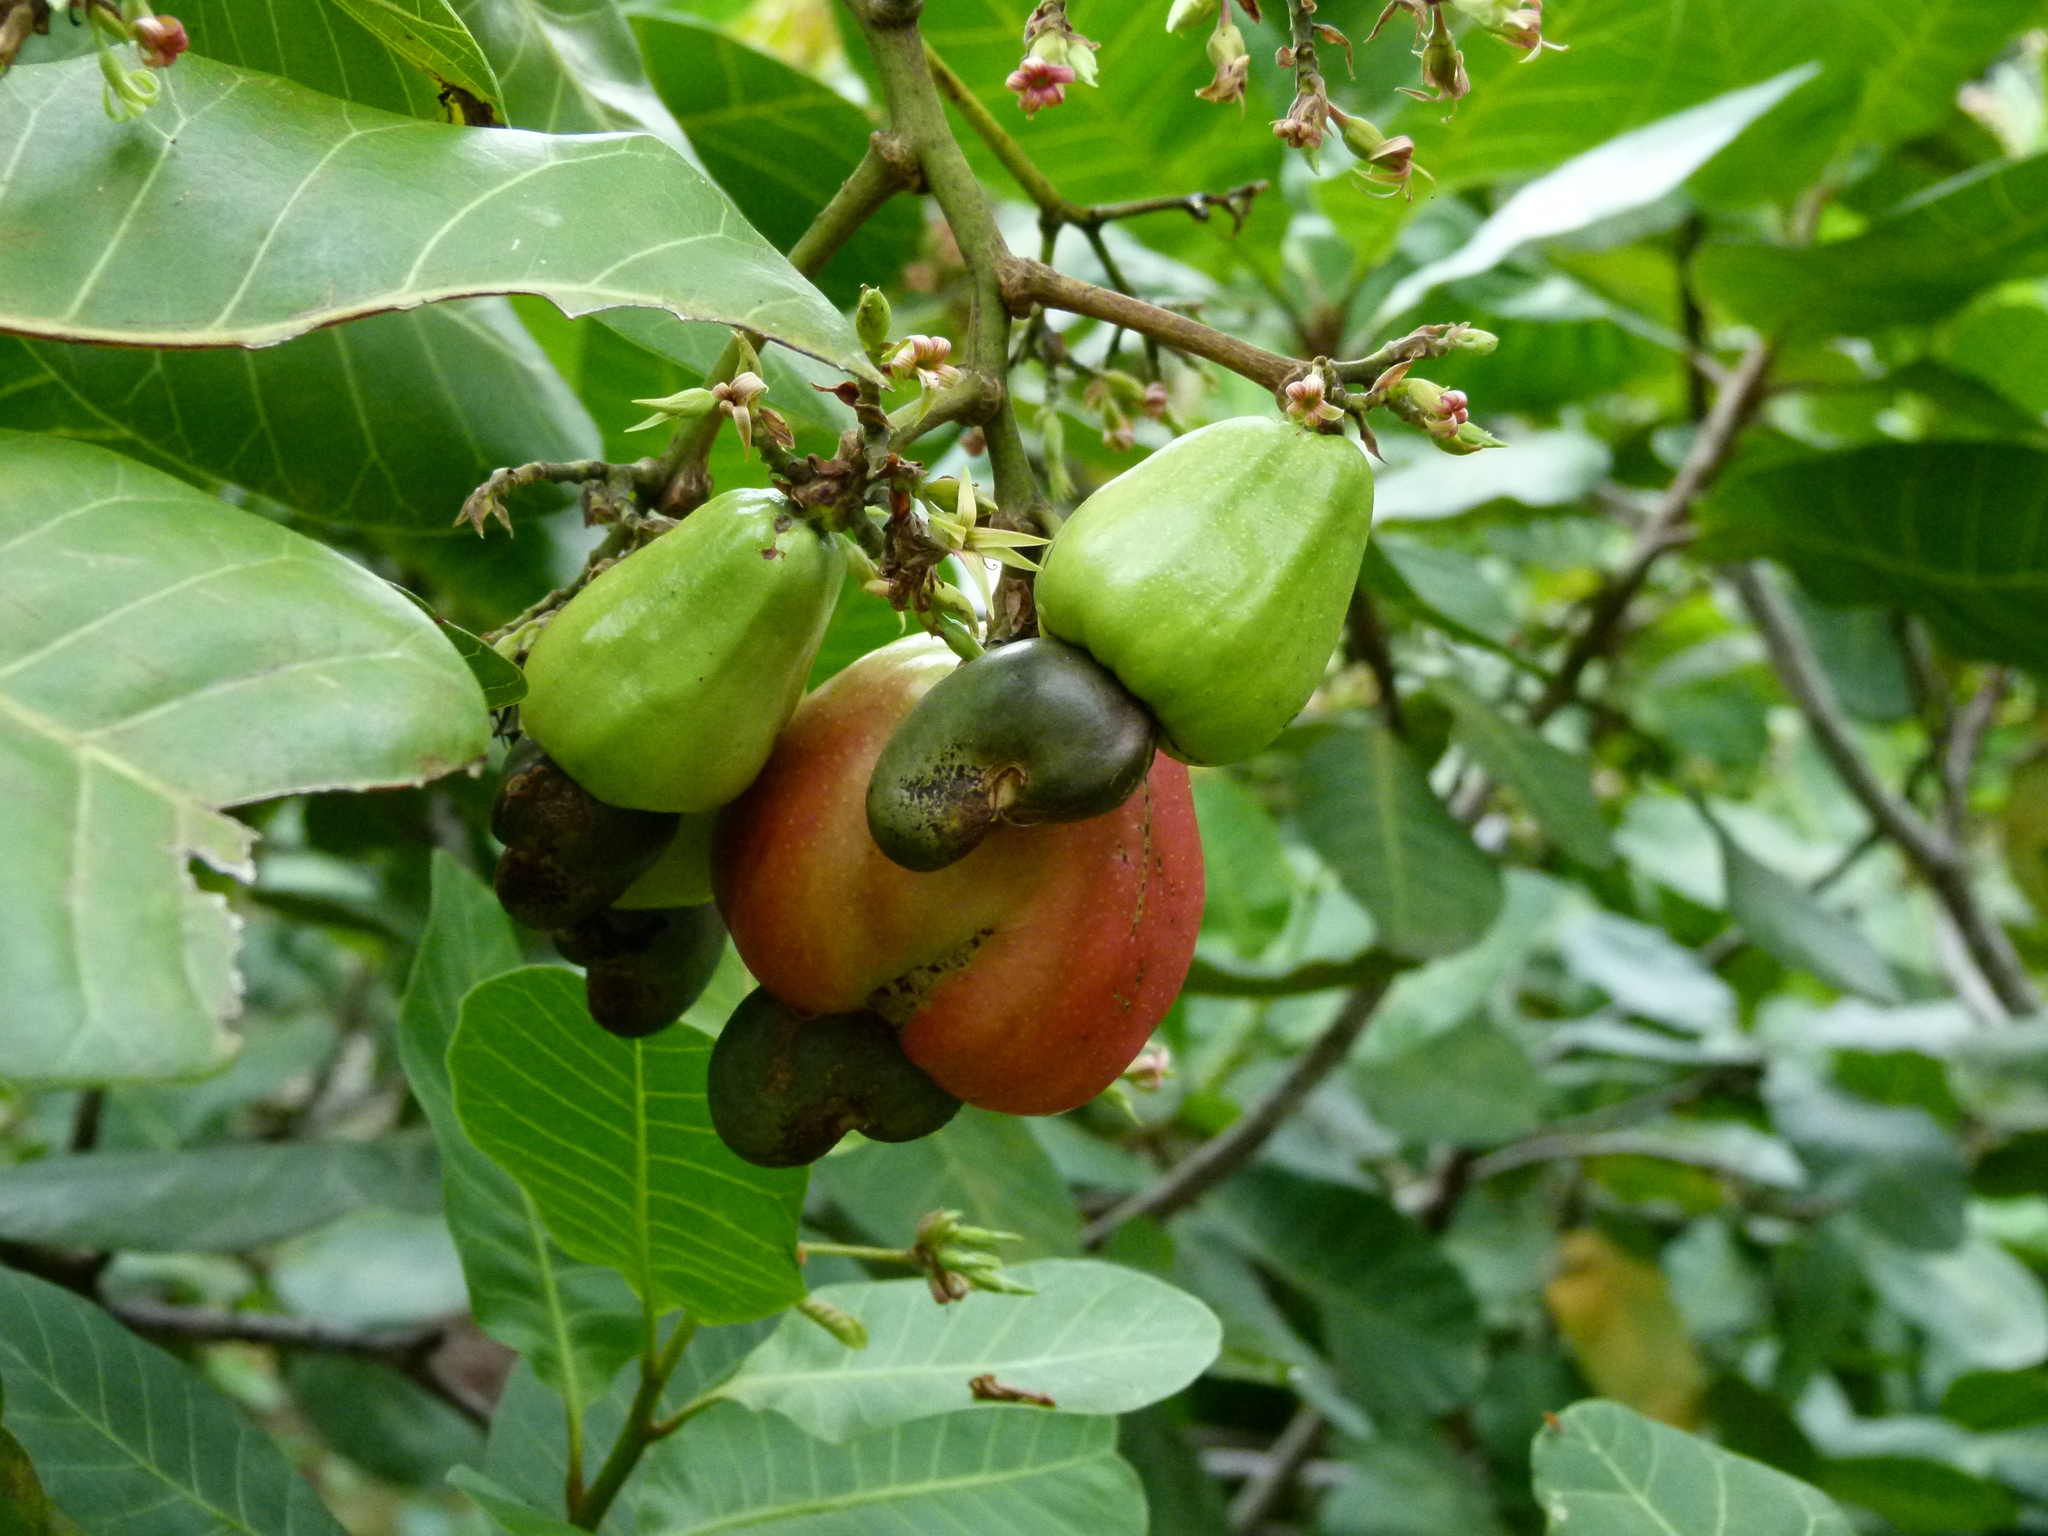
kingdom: Plantae
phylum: Tracheophyta
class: Magnoliopsida
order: Sapindales
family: Anacardiaceae
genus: Anacardium
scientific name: Anacardium occidentale
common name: Cashew
